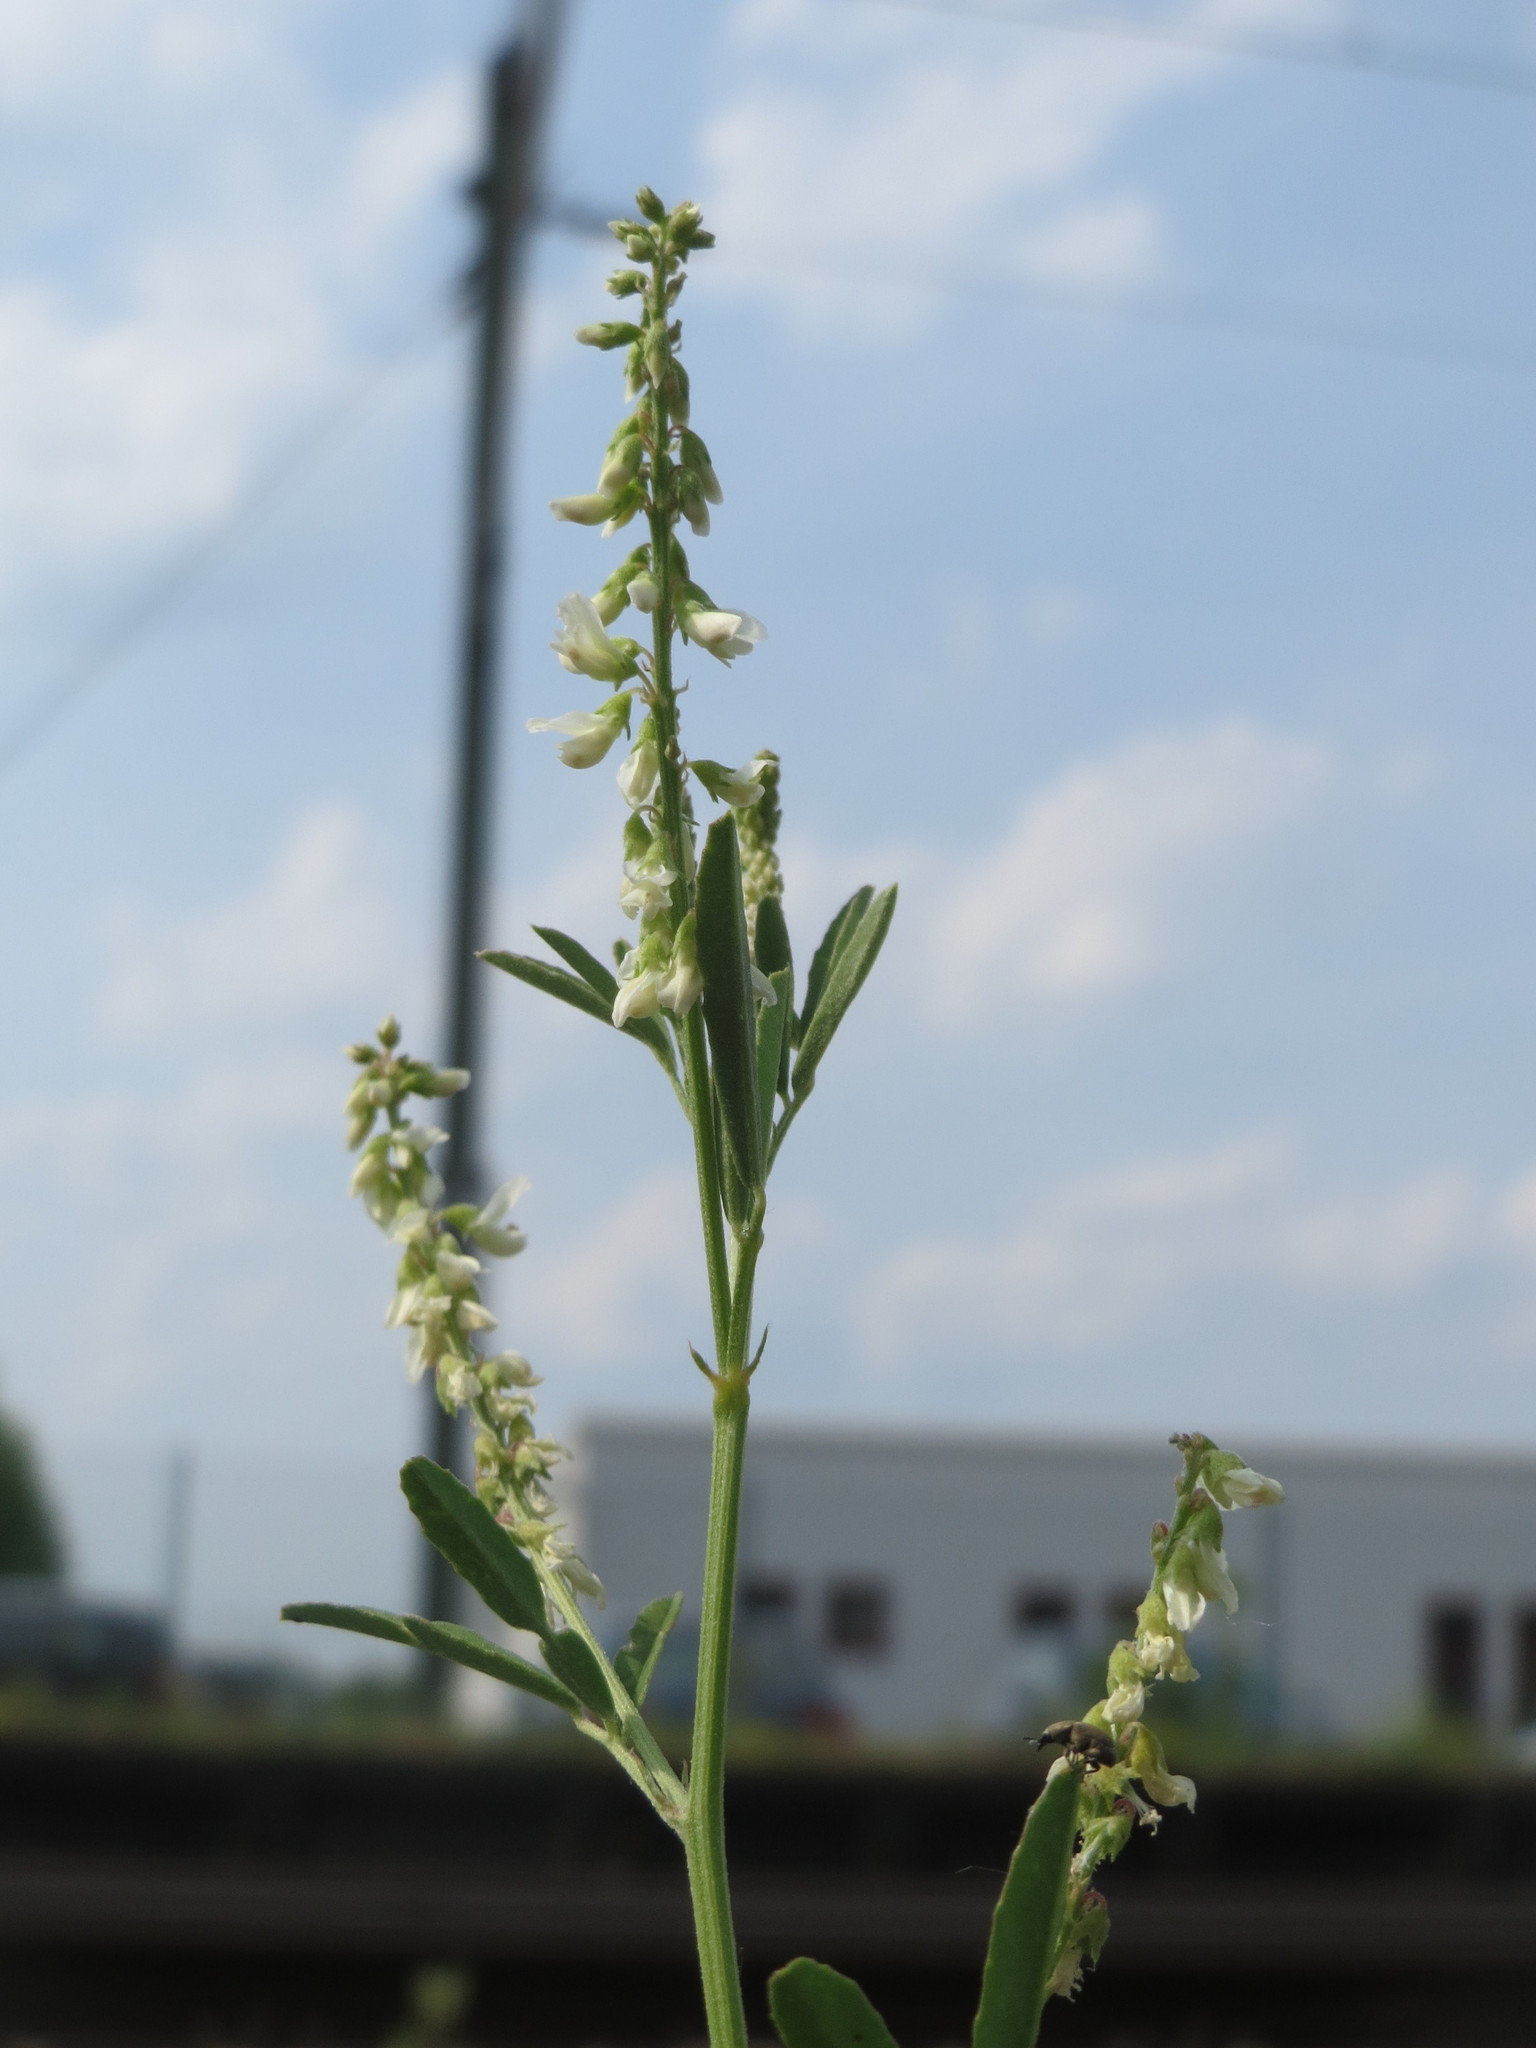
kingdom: Plantae
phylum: Tracheophyta
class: Magnoliopsida
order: Fabales
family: Fabaceae
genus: Melilotus
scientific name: Melilotus albus
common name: White melilot
